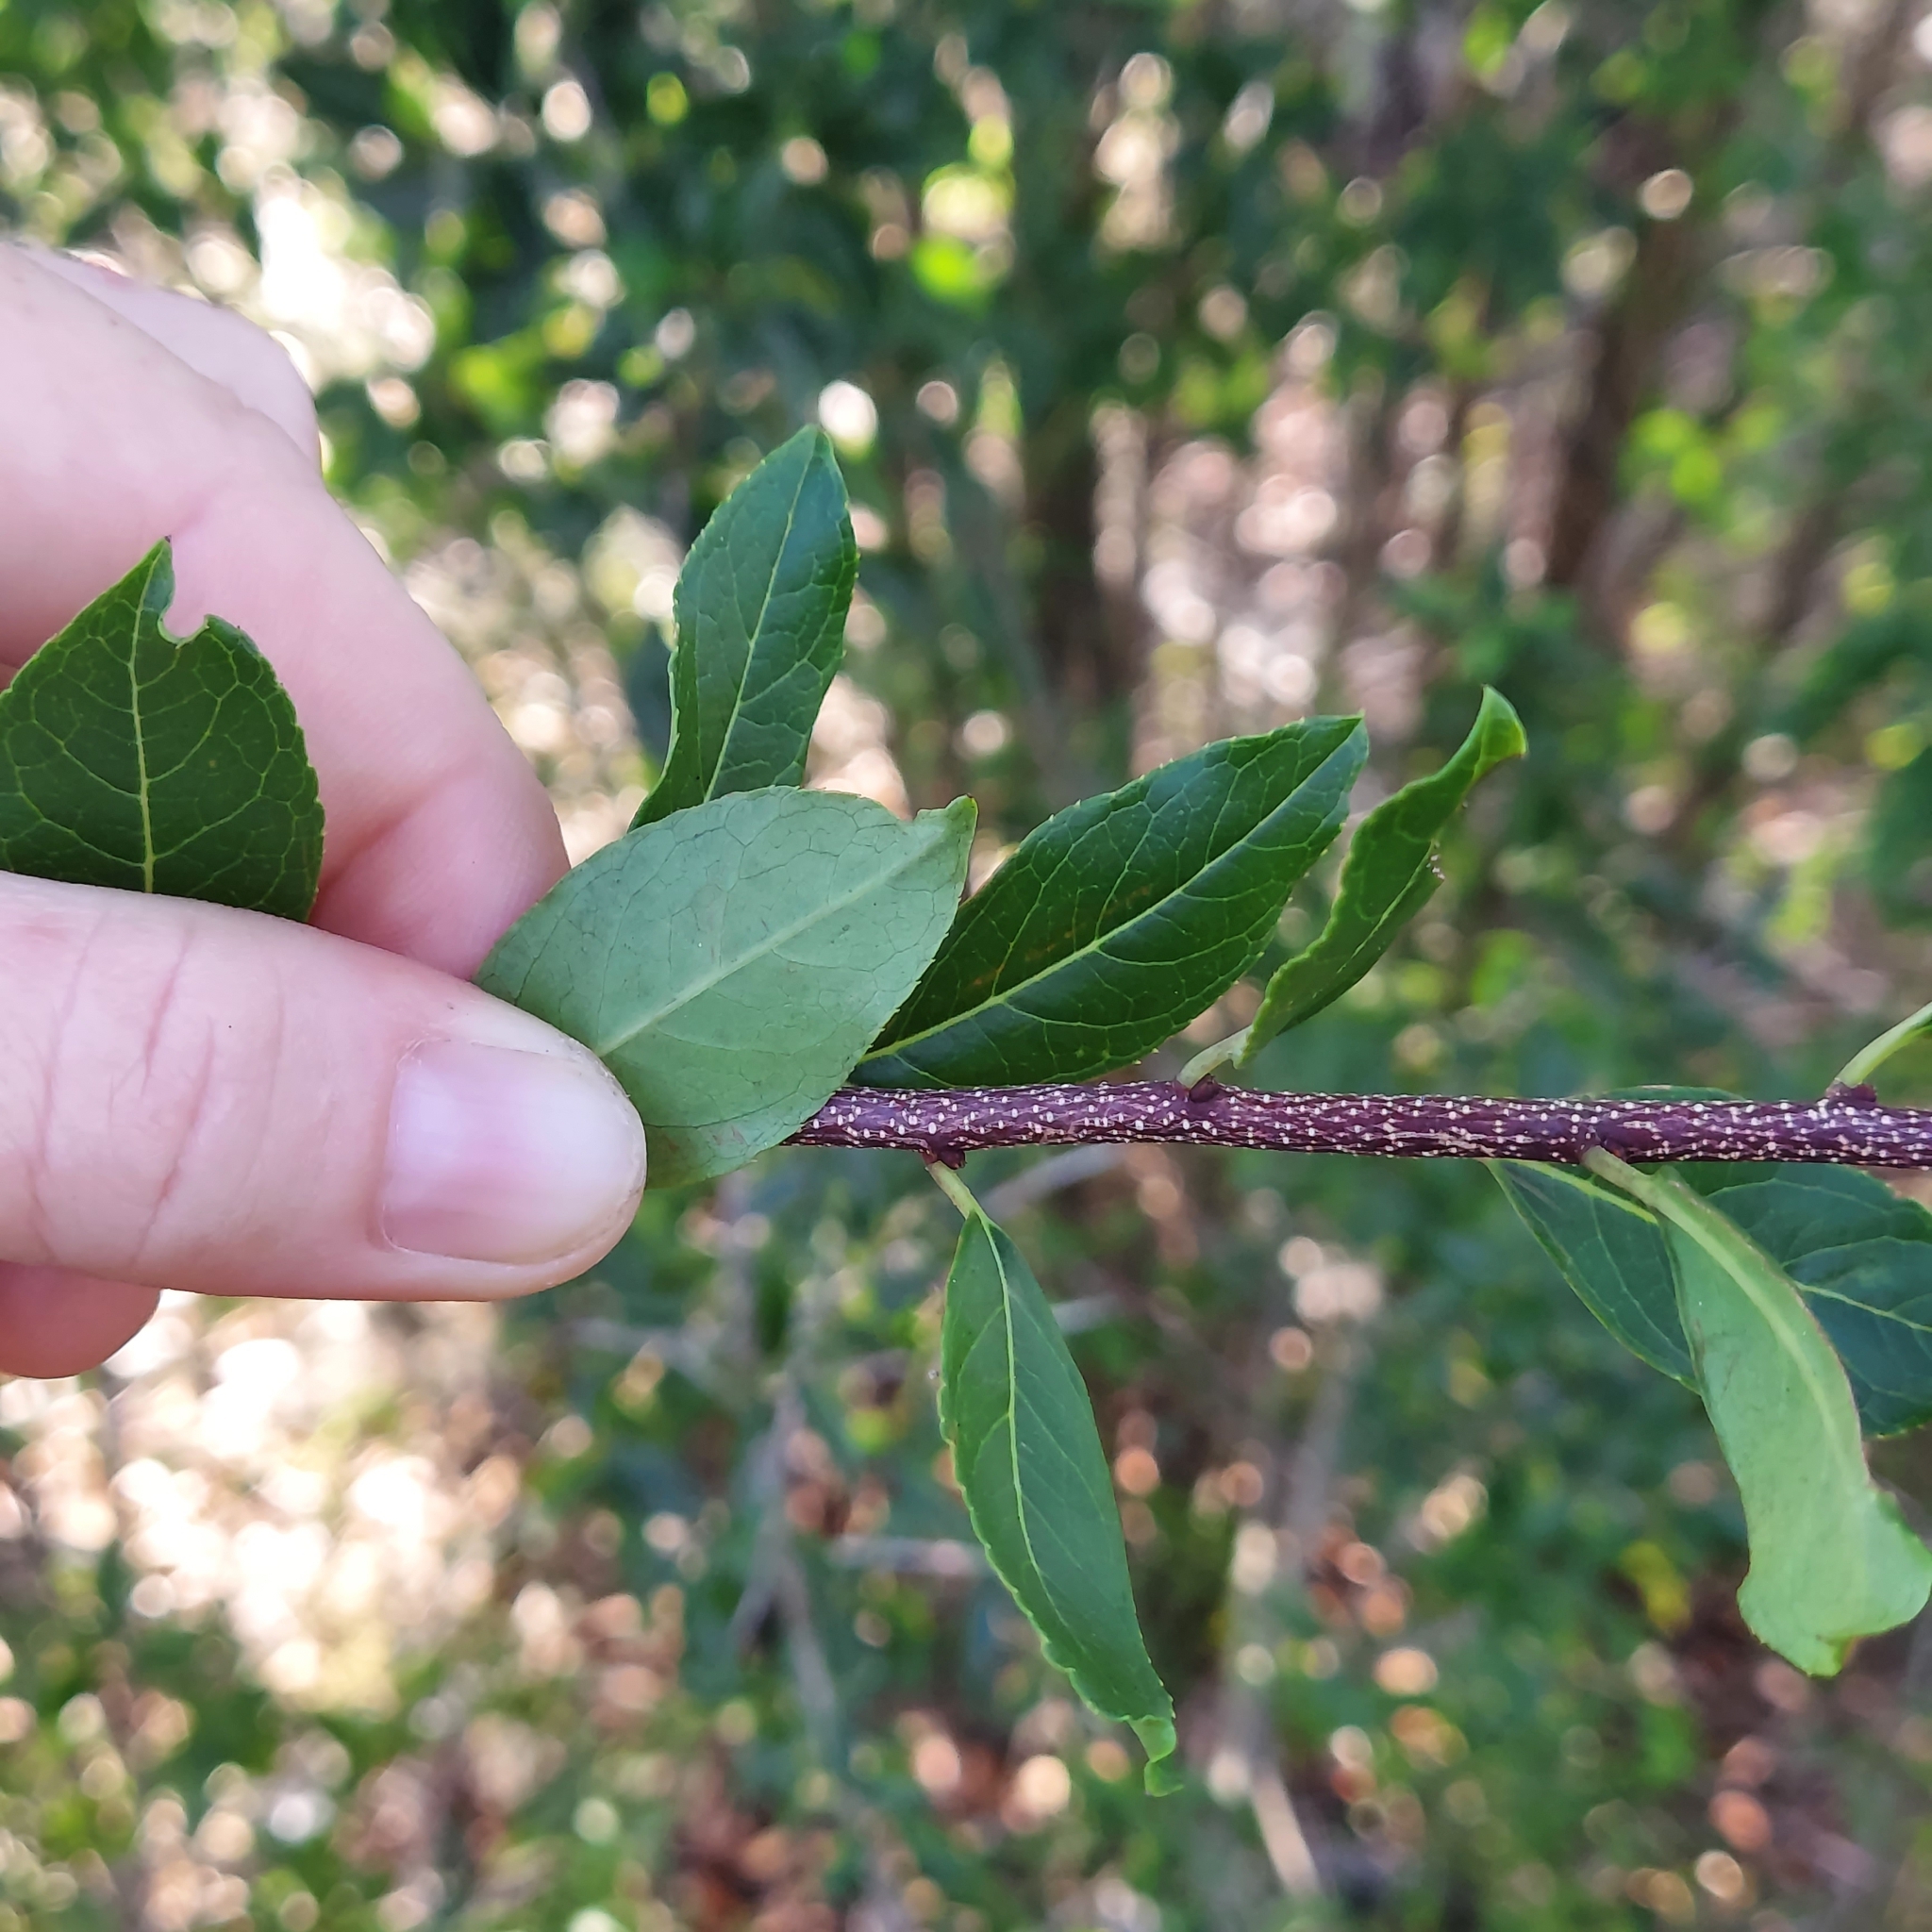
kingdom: Plantae
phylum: Tracheophyta
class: Magnoliopsida
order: Aquifoliales
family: Aquifoliaceae
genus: Ilex
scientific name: Ilex ambigua
